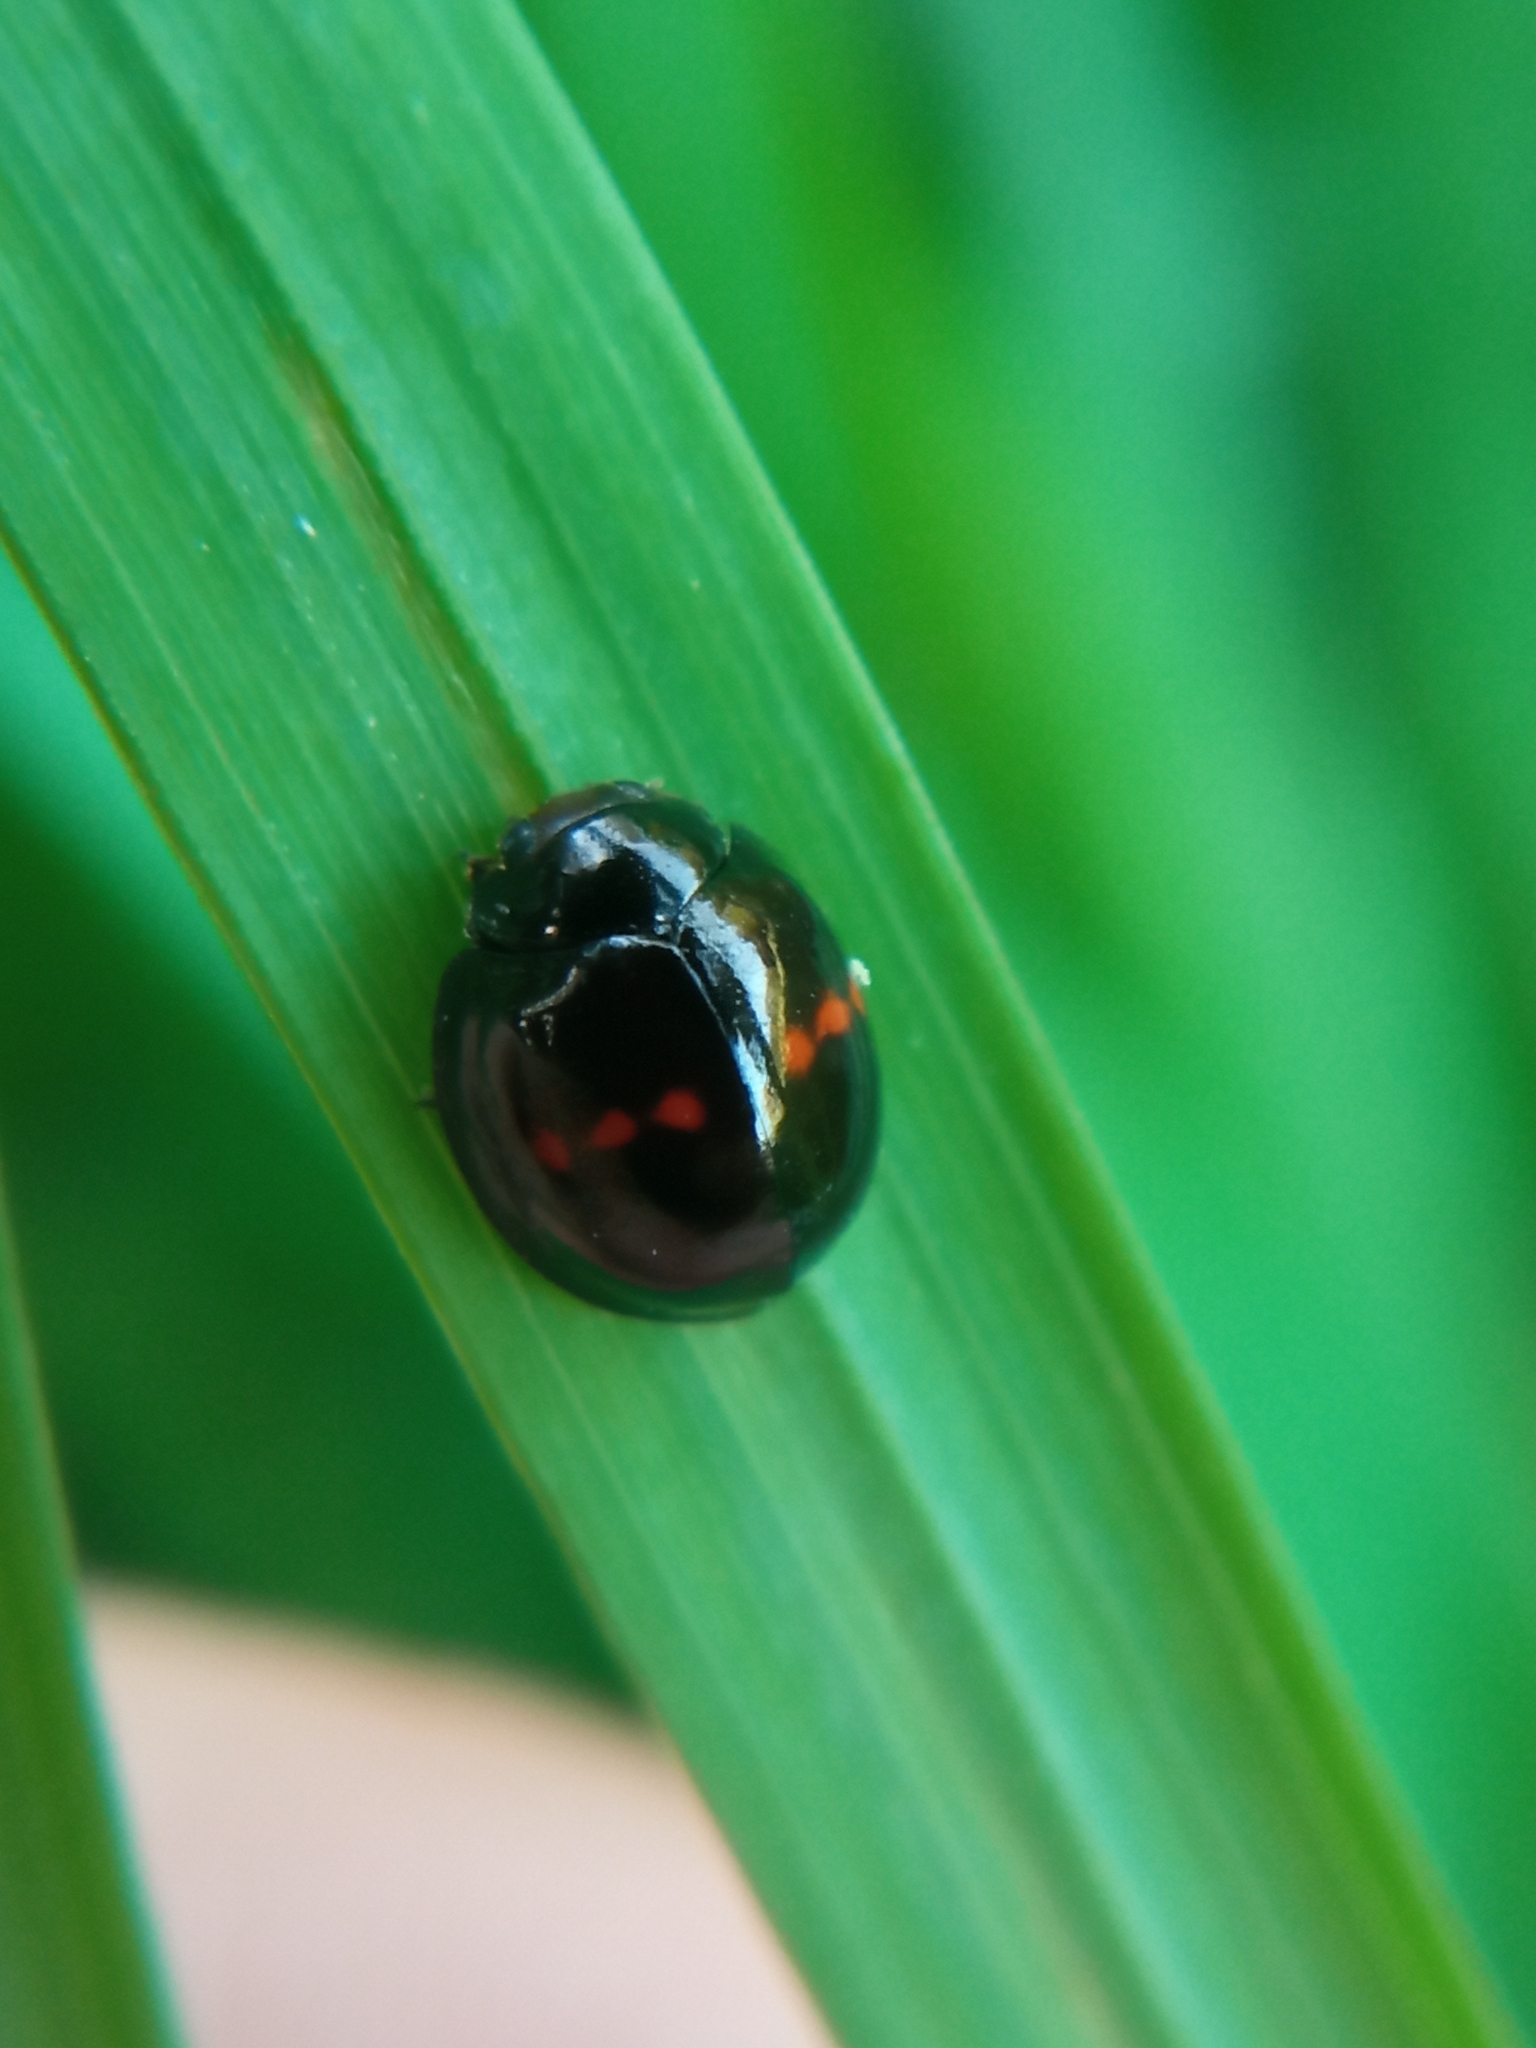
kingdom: Animalia
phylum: Arthropoda
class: Insecta
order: Coleoptera
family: Coccinellidae
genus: Chilocorus
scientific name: Chilocorus bipustulatus
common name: Heather ladybird
